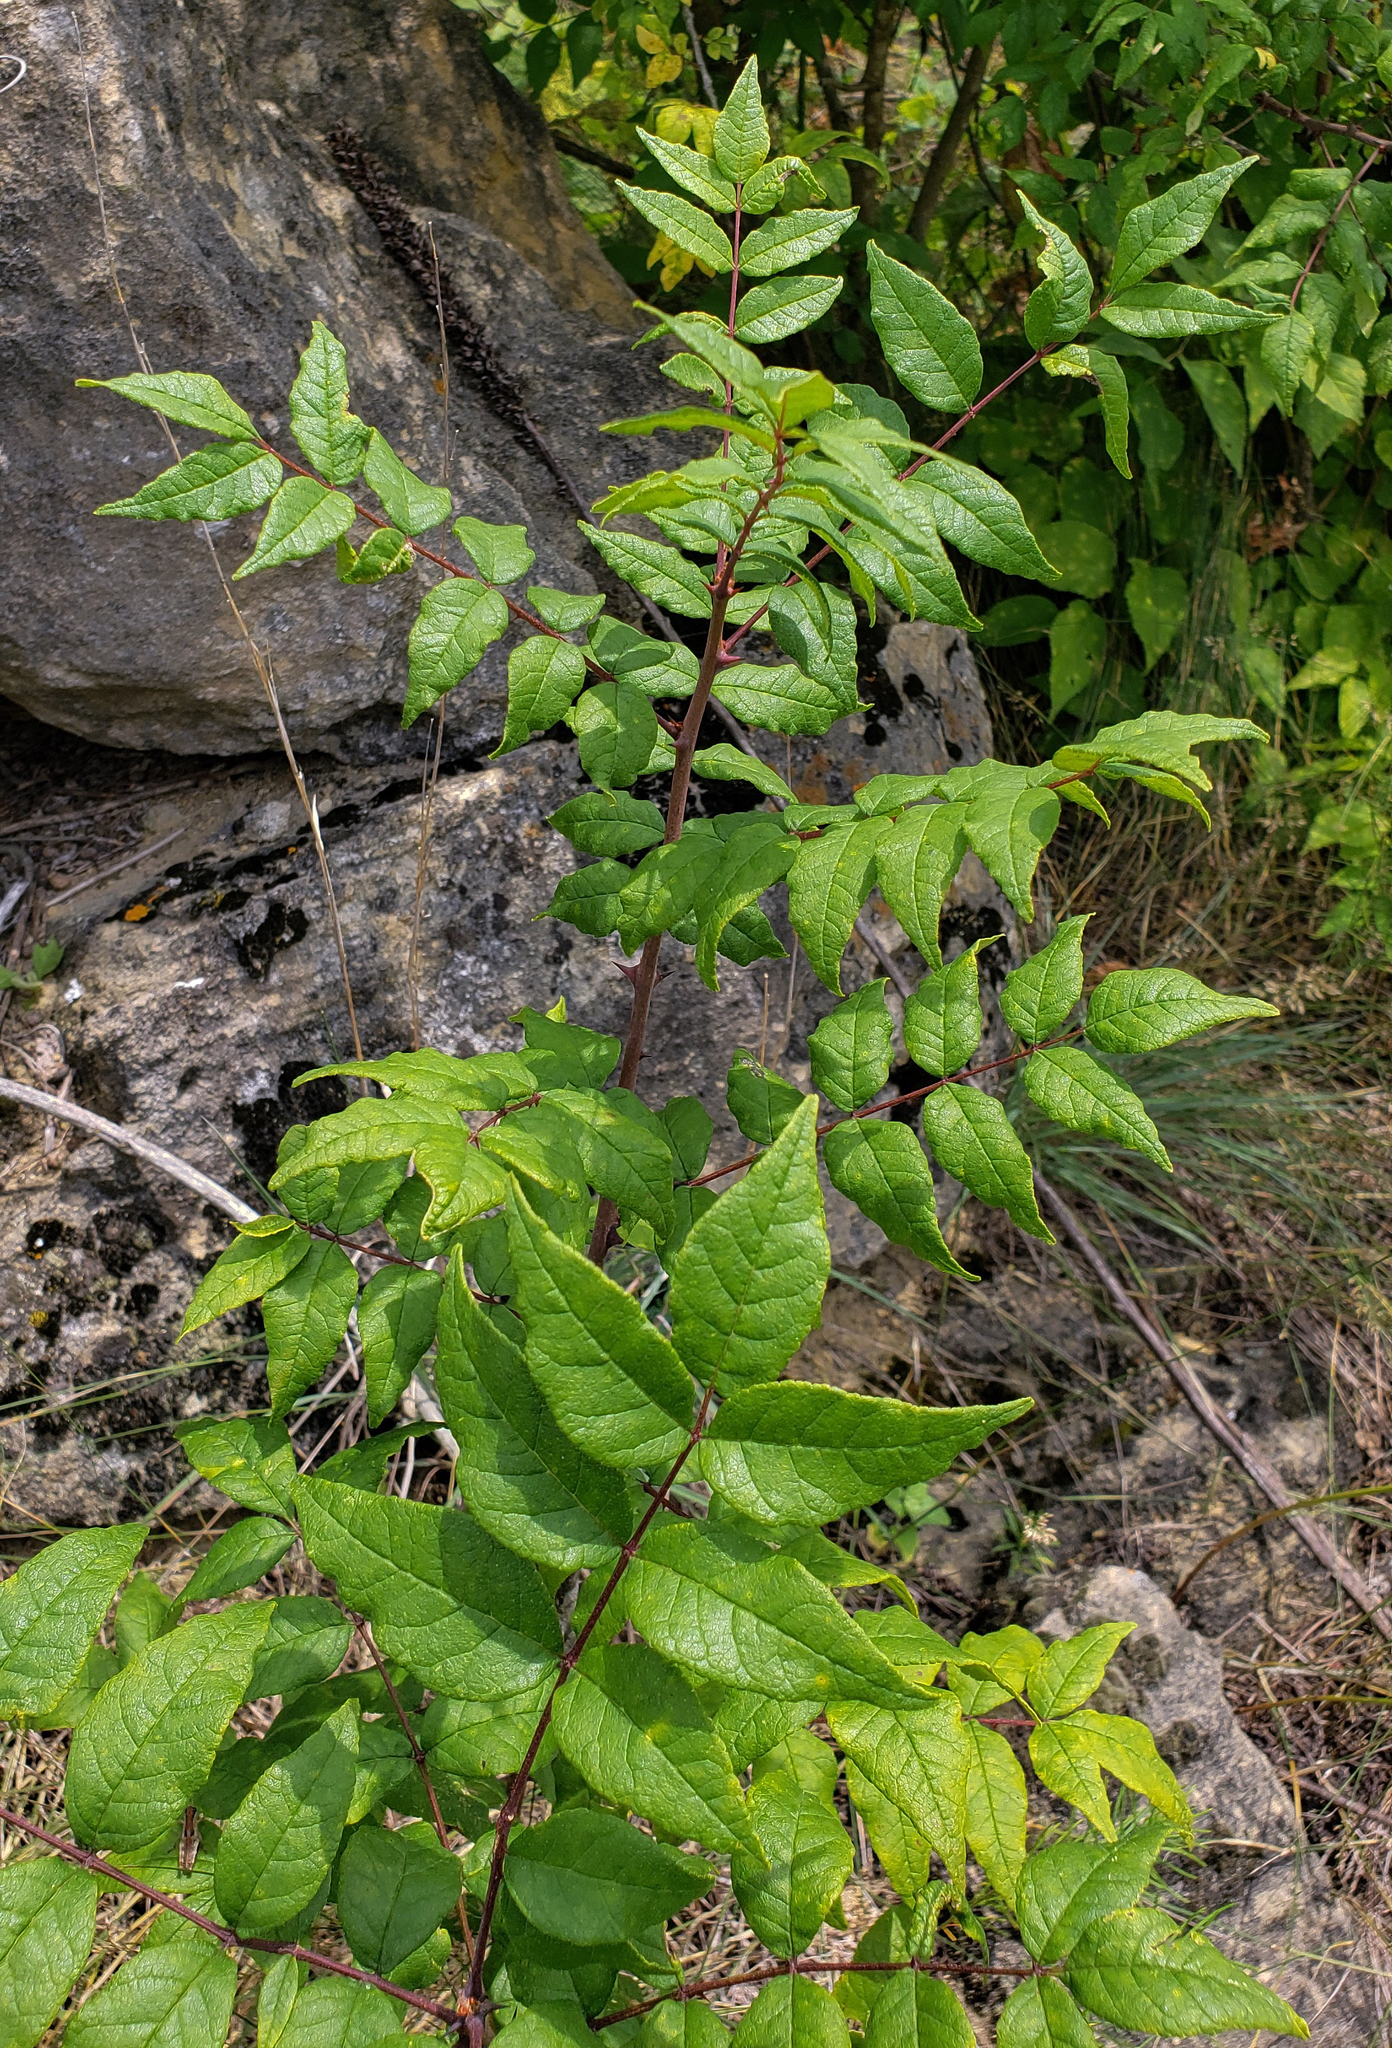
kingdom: Plantae
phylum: Tracheophyta
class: Magnoliopsida
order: Sapindales
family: Rutaceae
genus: Zanthoxylum
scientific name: Zanthoxylum americanum
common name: Northern prickly-ash
